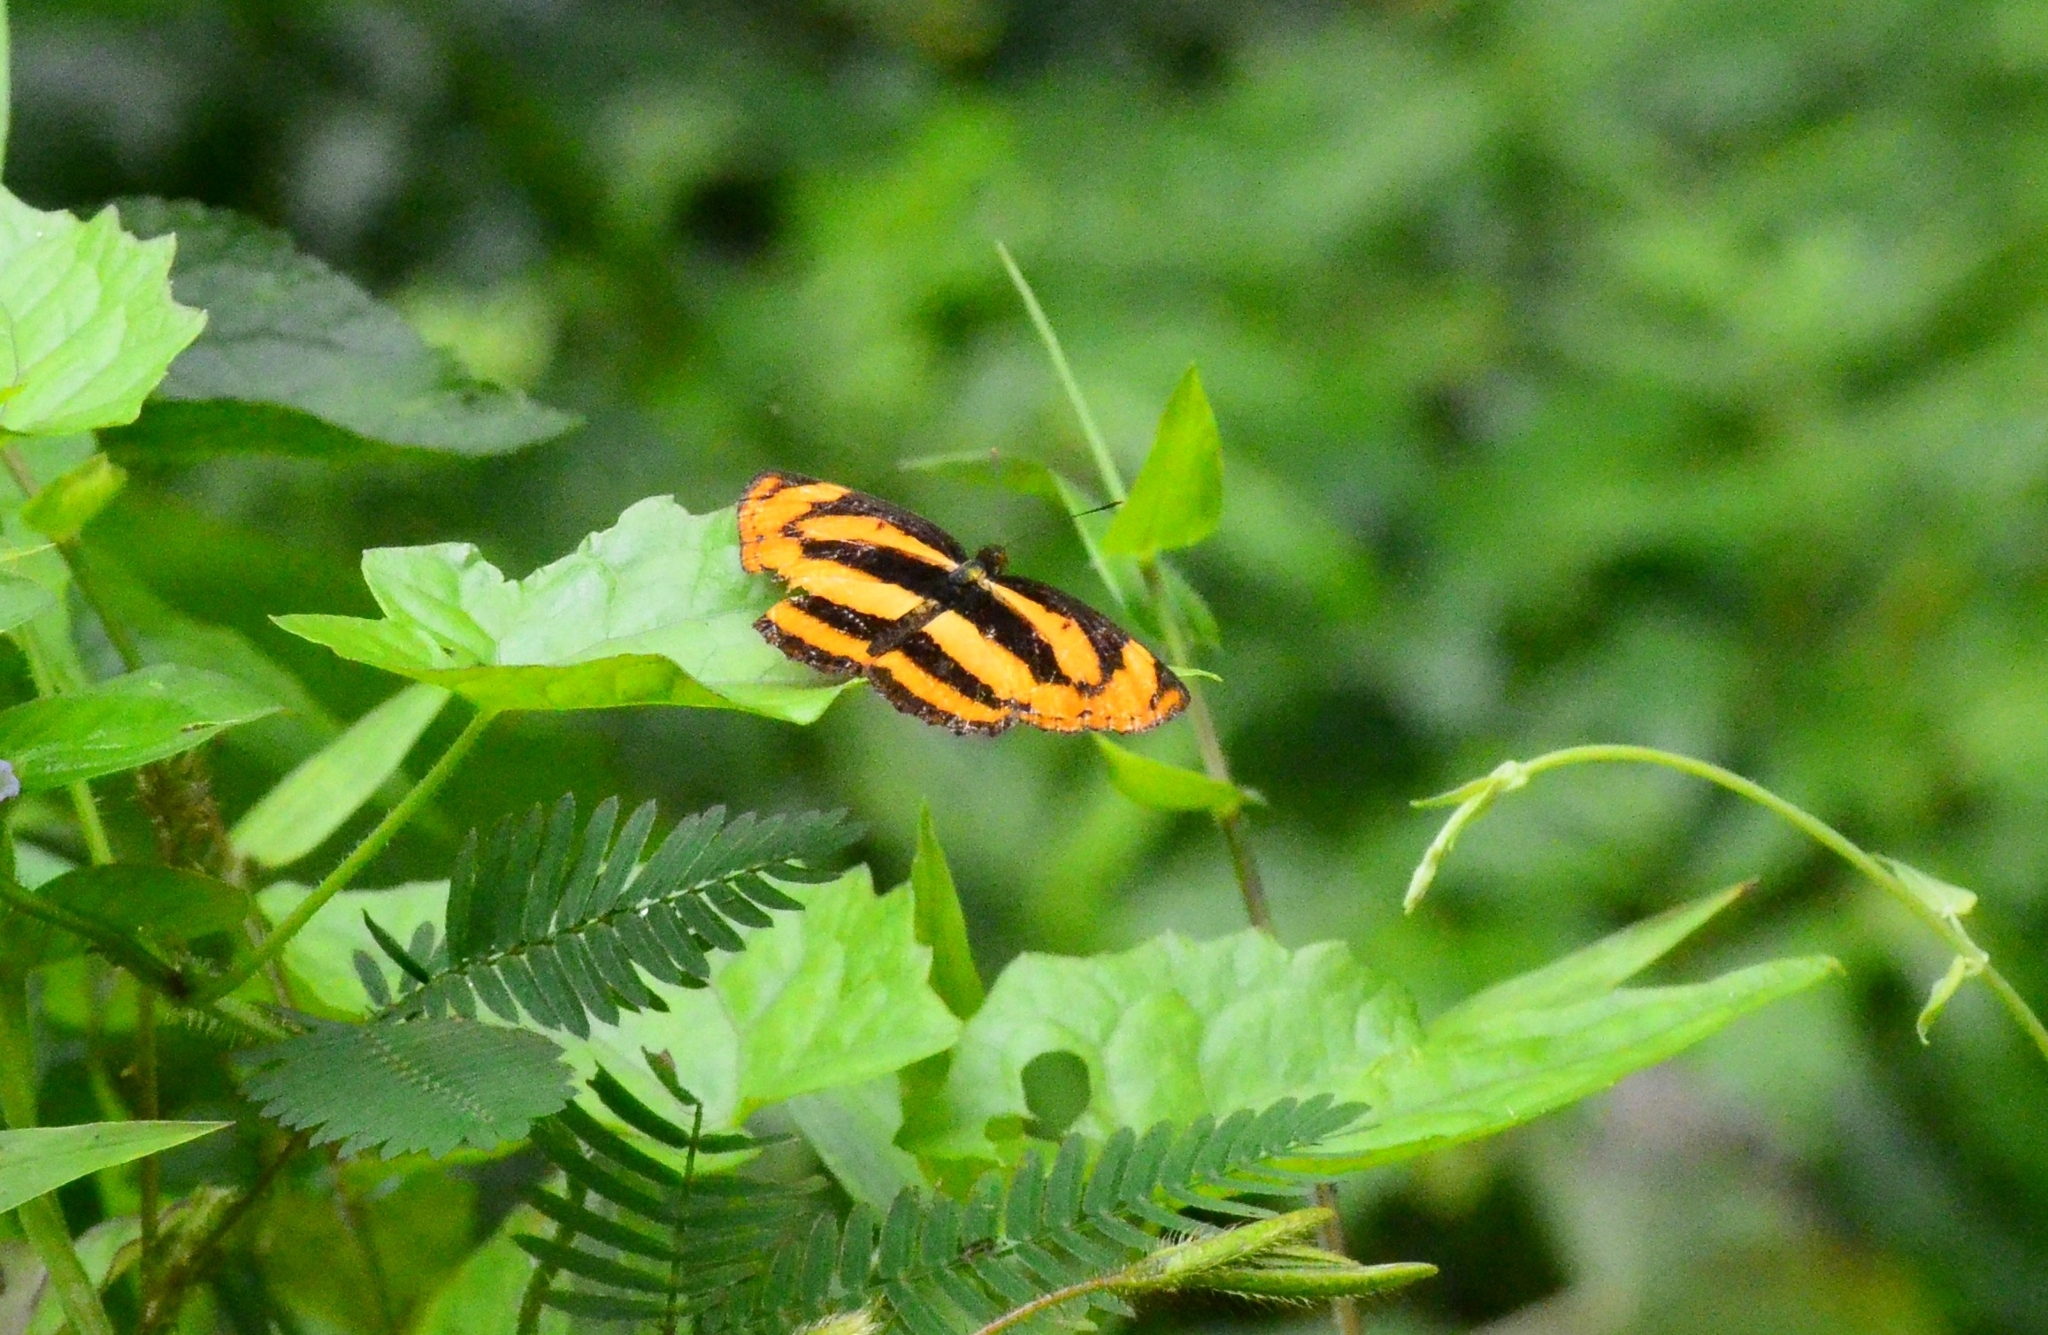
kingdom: Animalia
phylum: Arthropoda
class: Insecta
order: Lepidoptera
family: Nymphalidae
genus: Pantoporia
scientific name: Pantoporia sandaka
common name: Extra lascar
